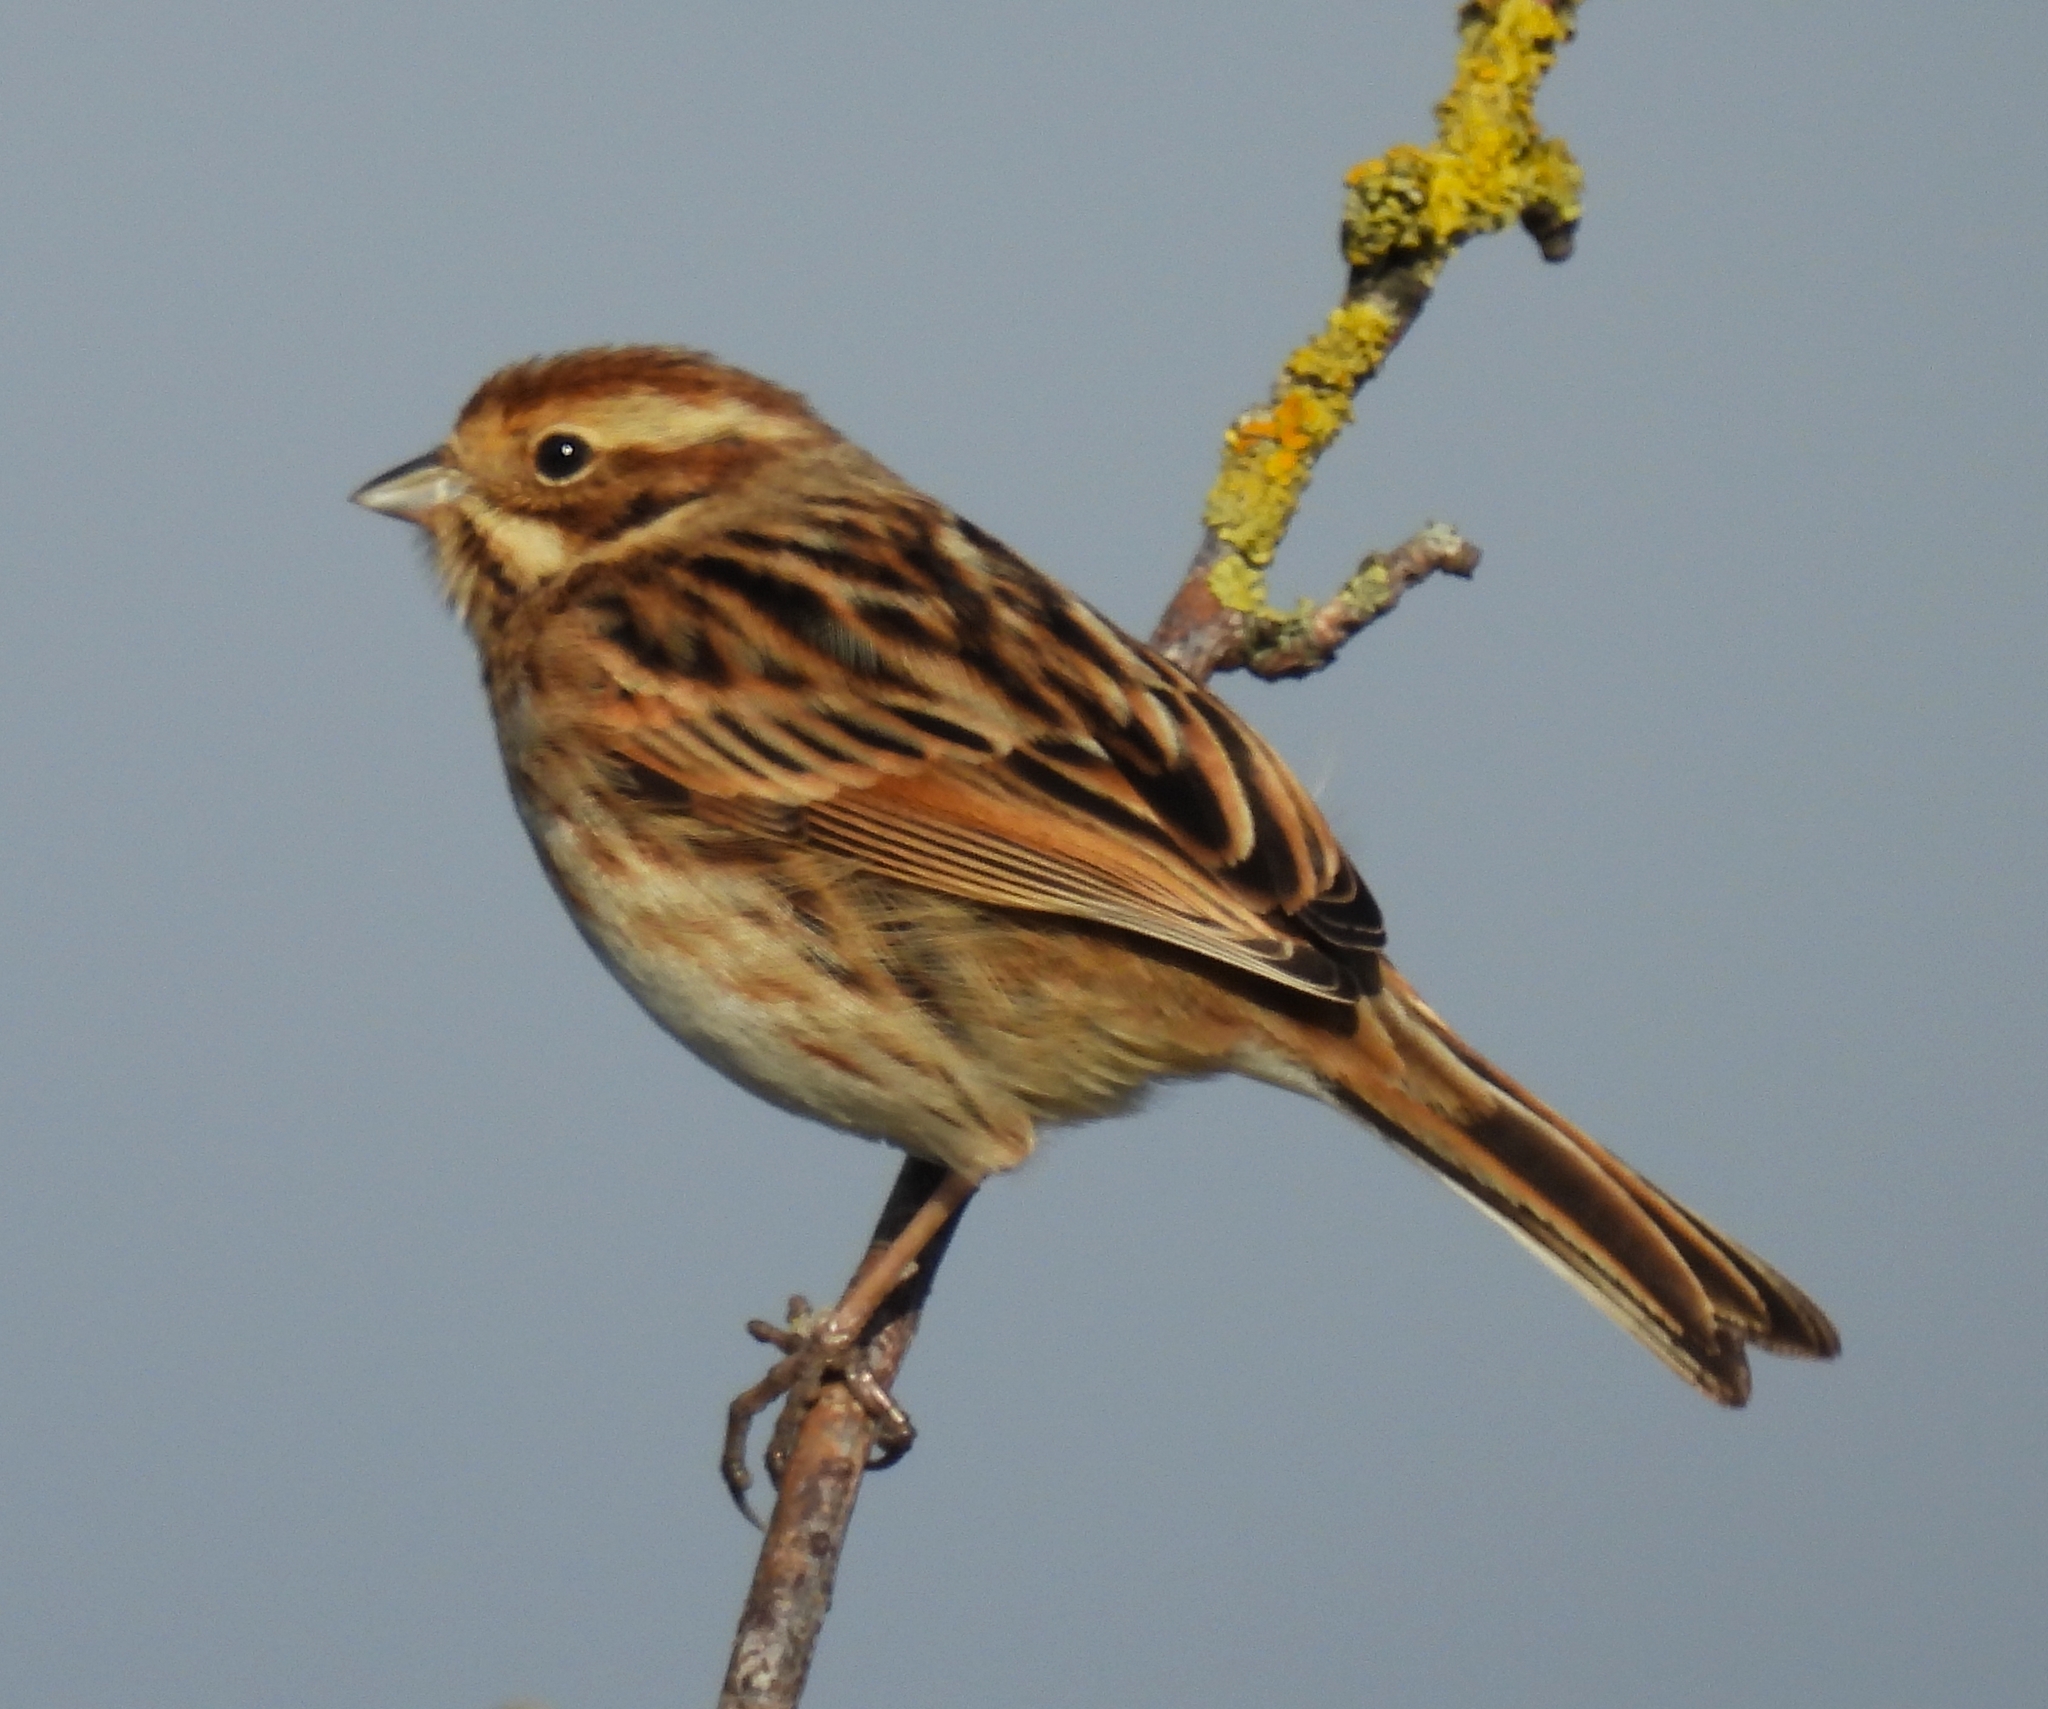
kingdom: Animalia
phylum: Chordata
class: Aves
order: Passeriformes
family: Emberizidae
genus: Emberiza
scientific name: Emberiza schoeniclus
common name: Reed bunting
